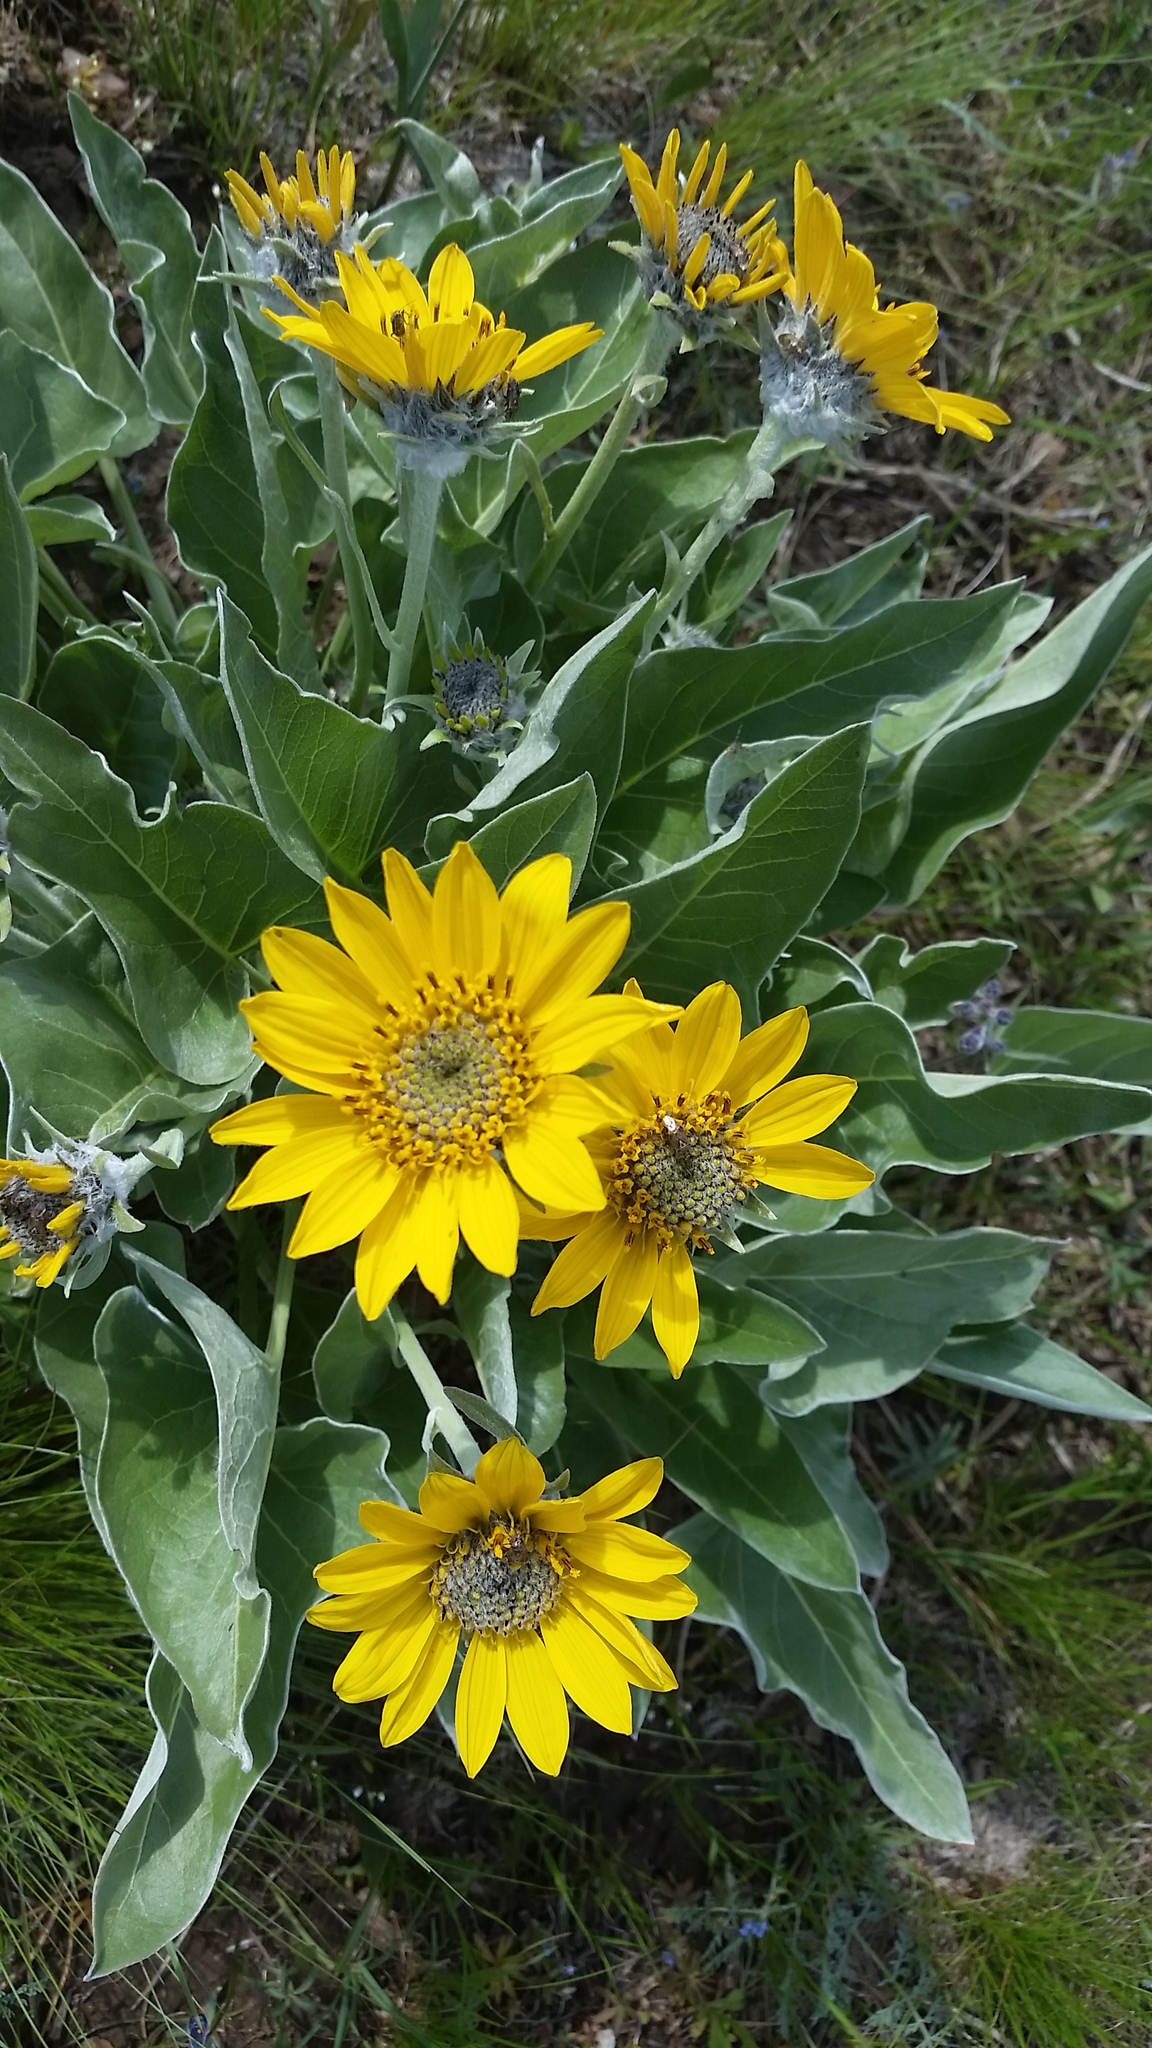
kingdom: Plantae
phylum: Tracheophyta
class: Magnoliopsida
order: Asterales
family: Asteraceae
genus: Wyethia
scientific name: Wyethia sagittata
